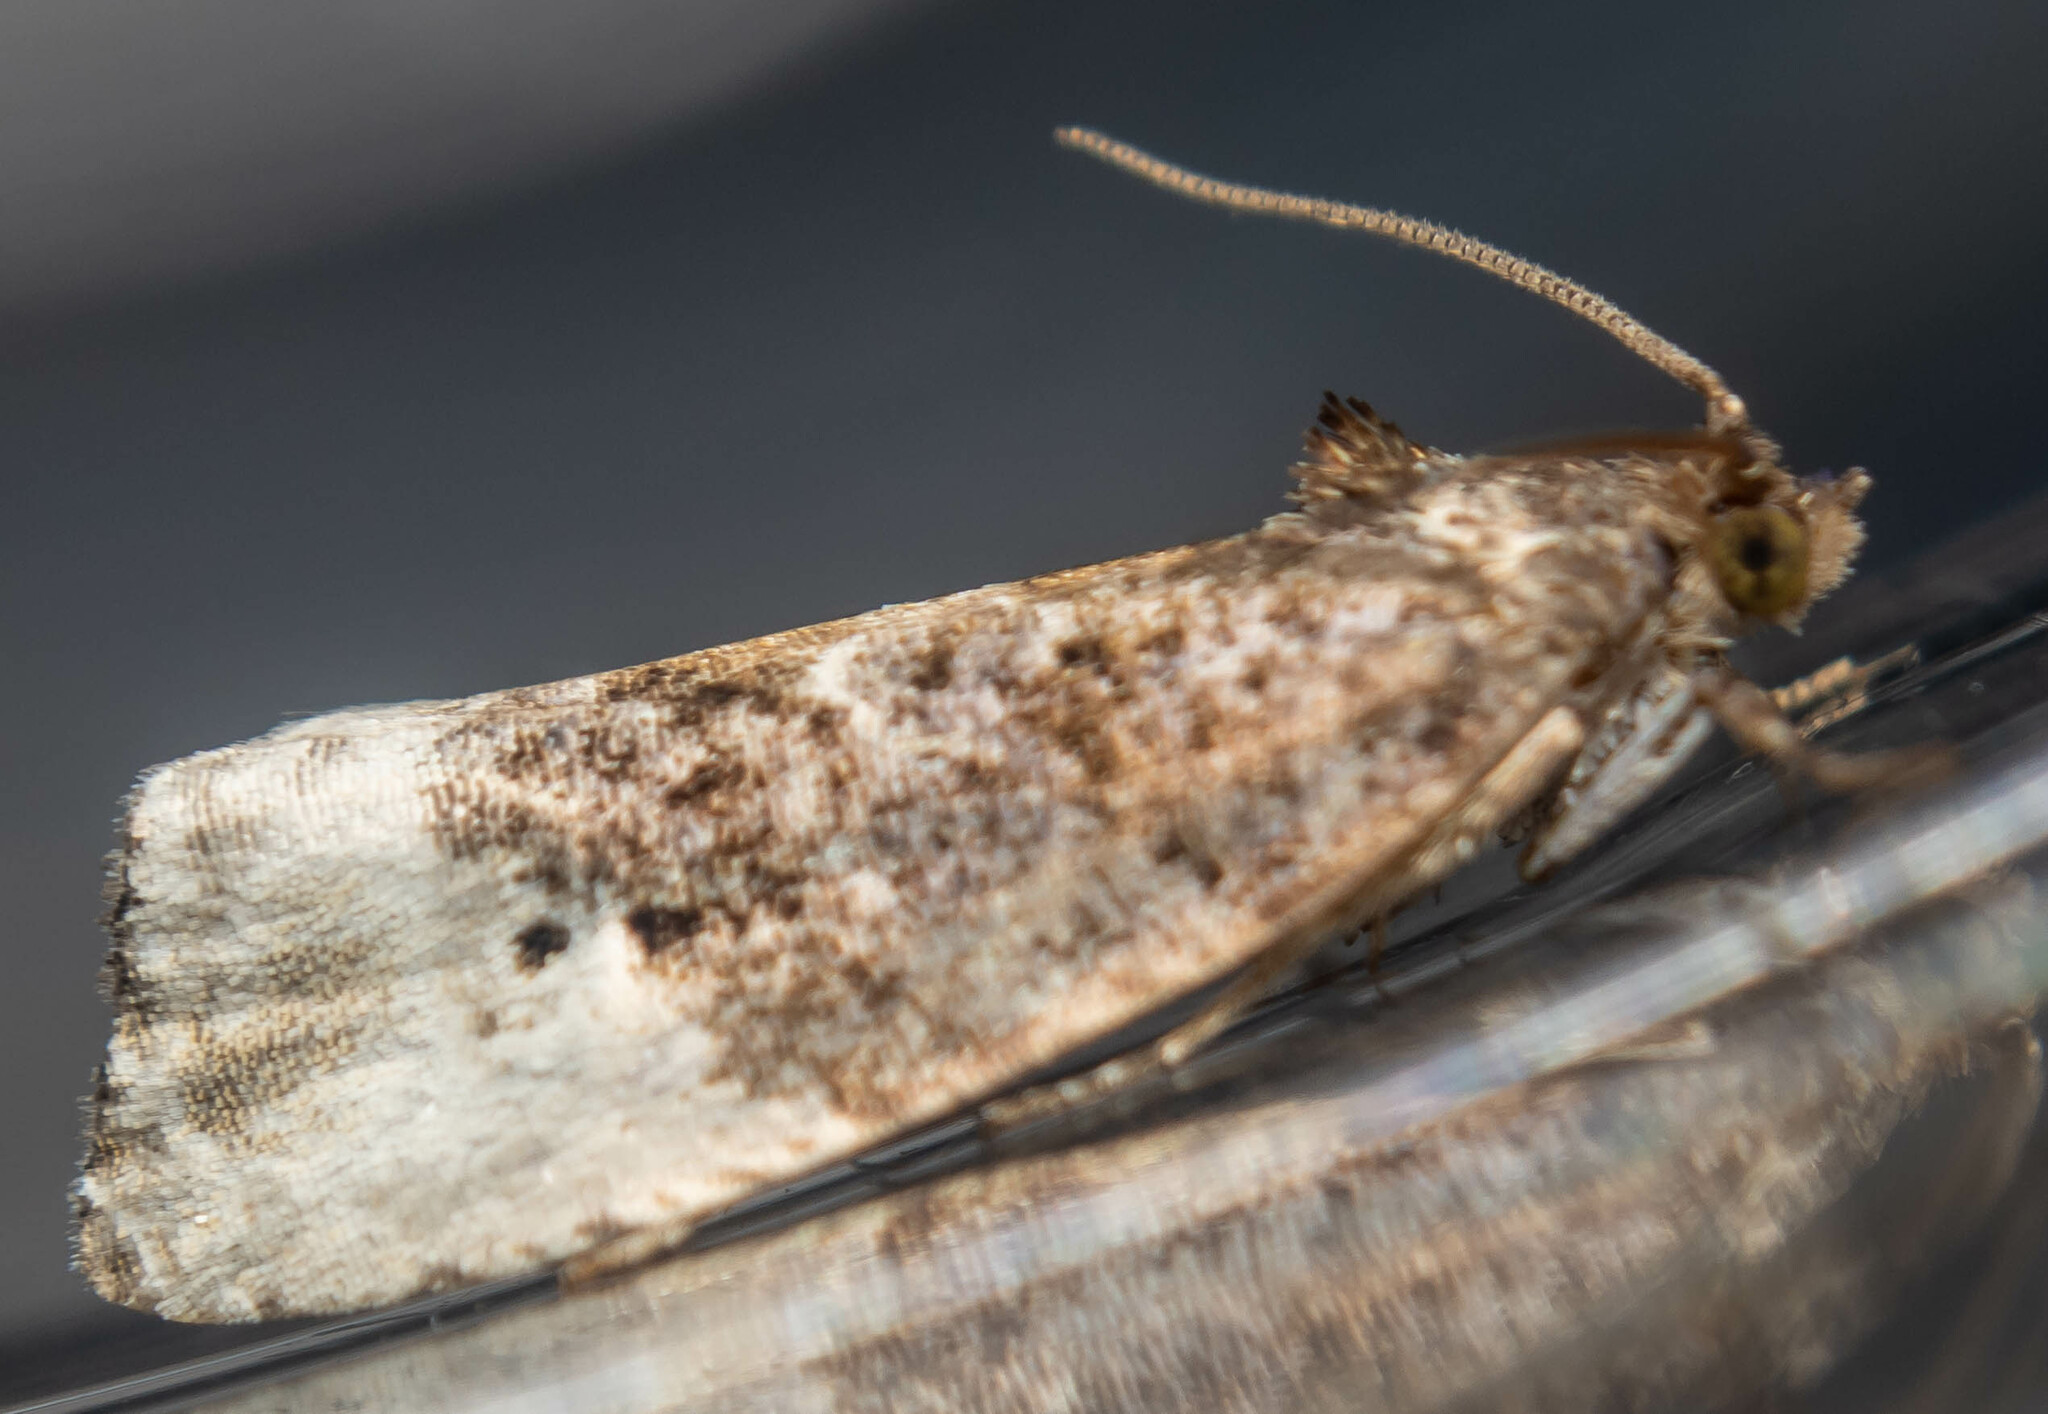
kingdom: Animalia
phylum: Arthropoda
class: Insecta
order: Lepidoptera
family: Tortricidae
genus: Hedya
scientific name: Hedya nubiferana
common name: Marbled orchard tortrix
